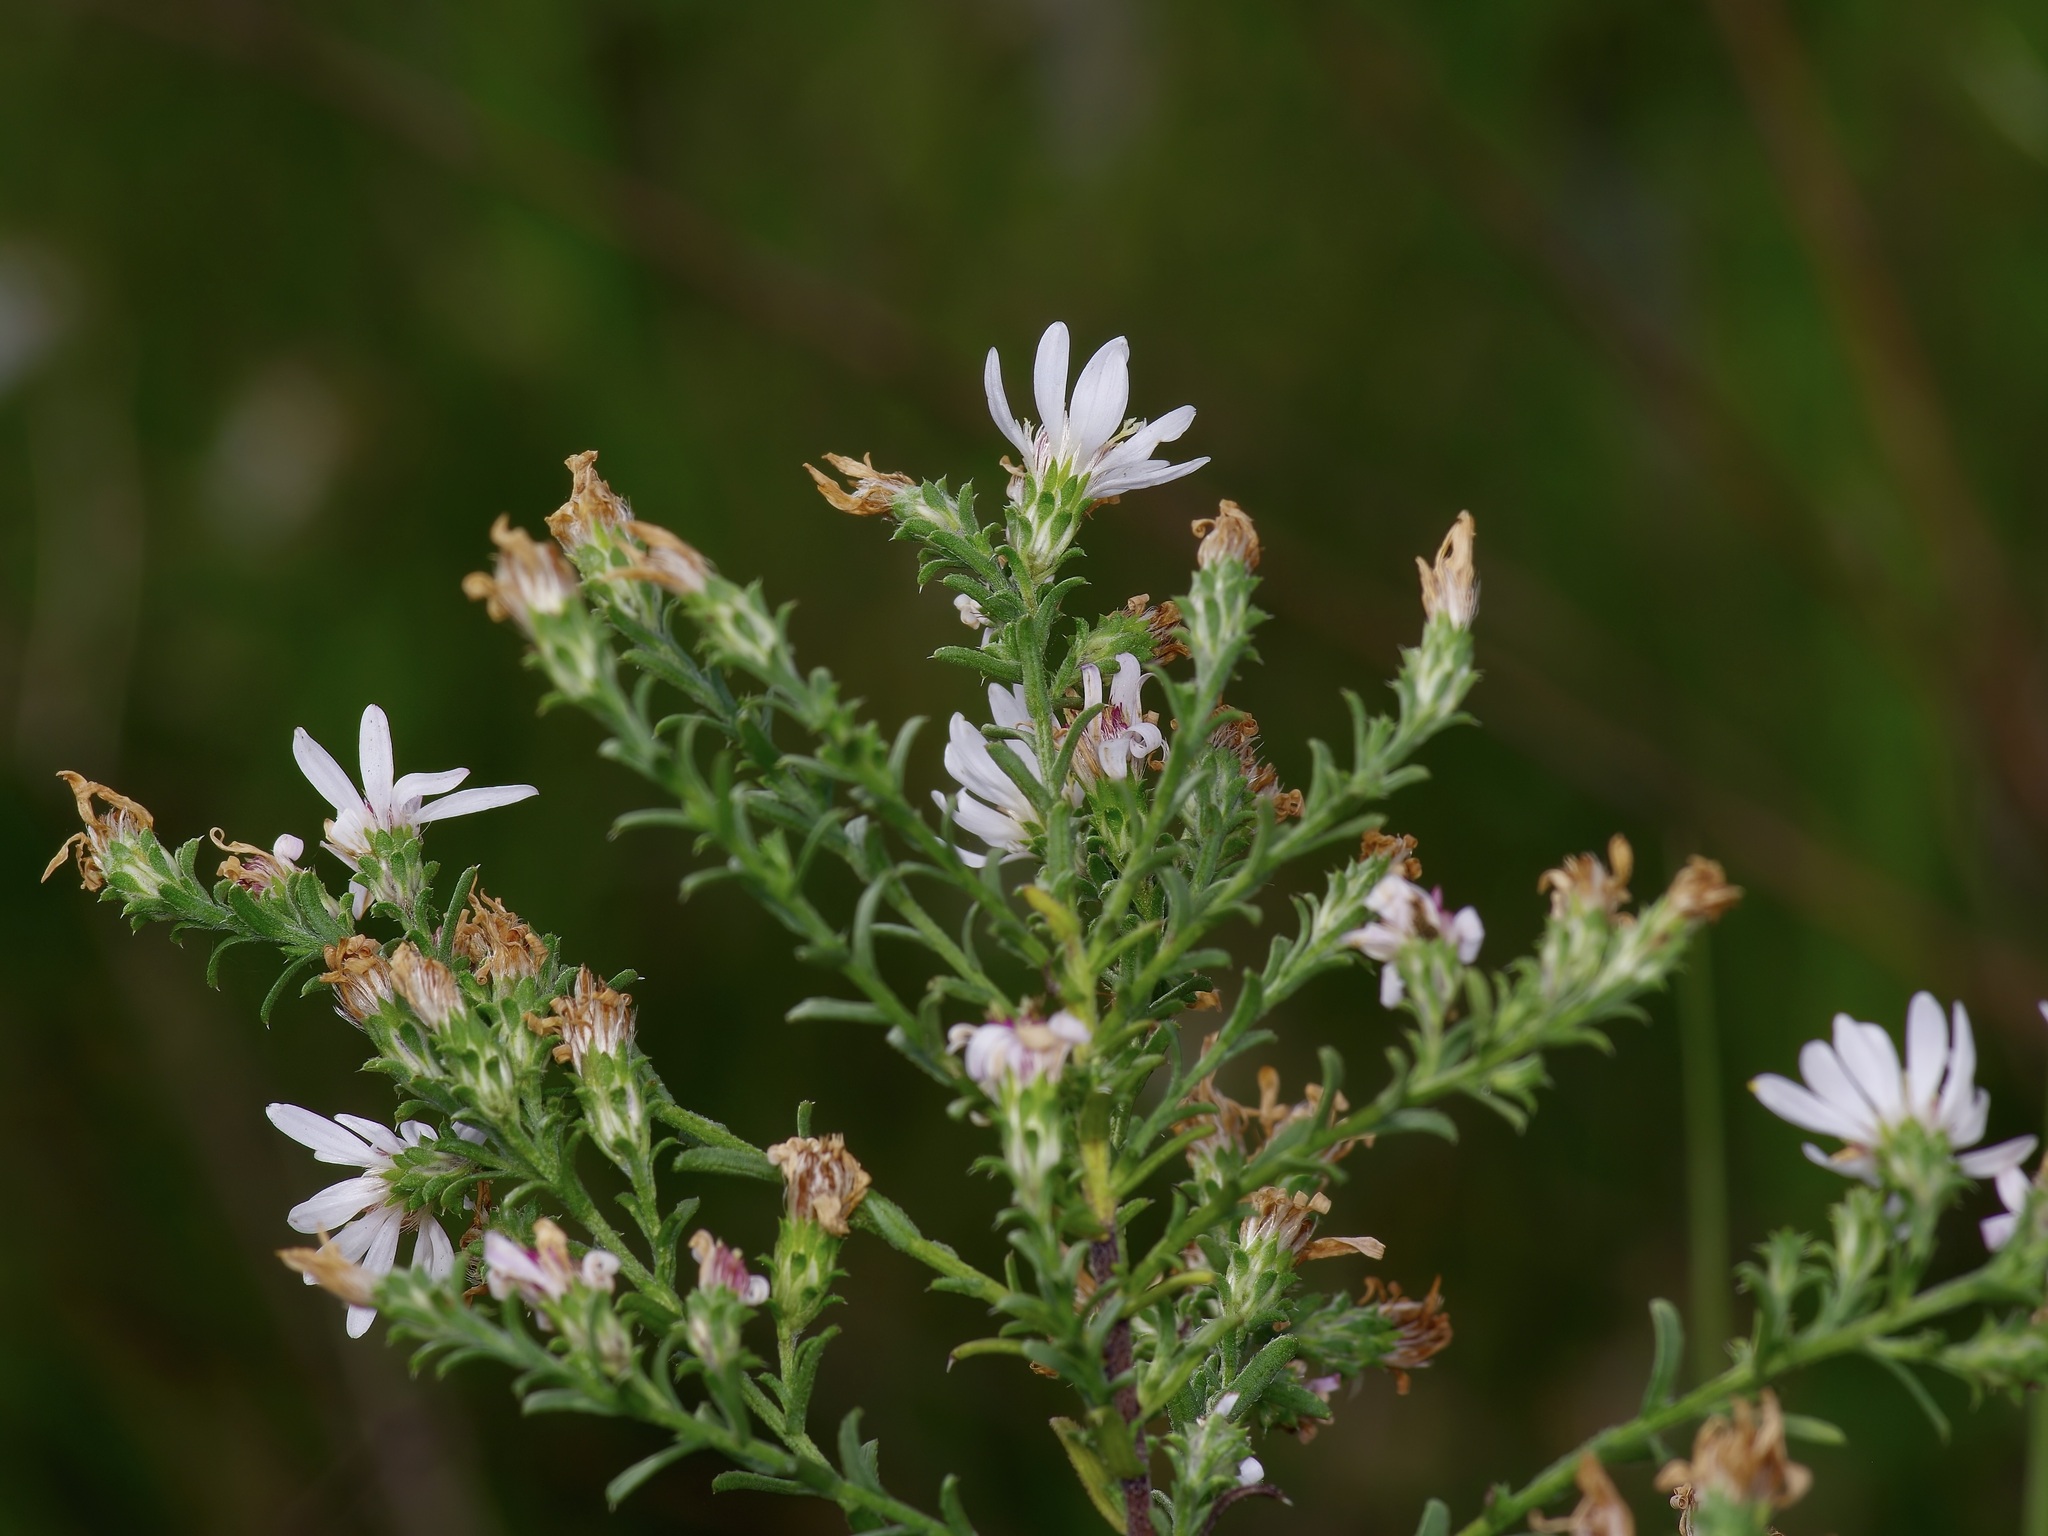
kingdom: Plantae
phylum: Tracheophyta
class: Magnoliopsida
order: Asterales
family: Asteraceae
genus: Symphyotrichum
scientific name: Symphyotrichum ericoides
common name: Heath aster
